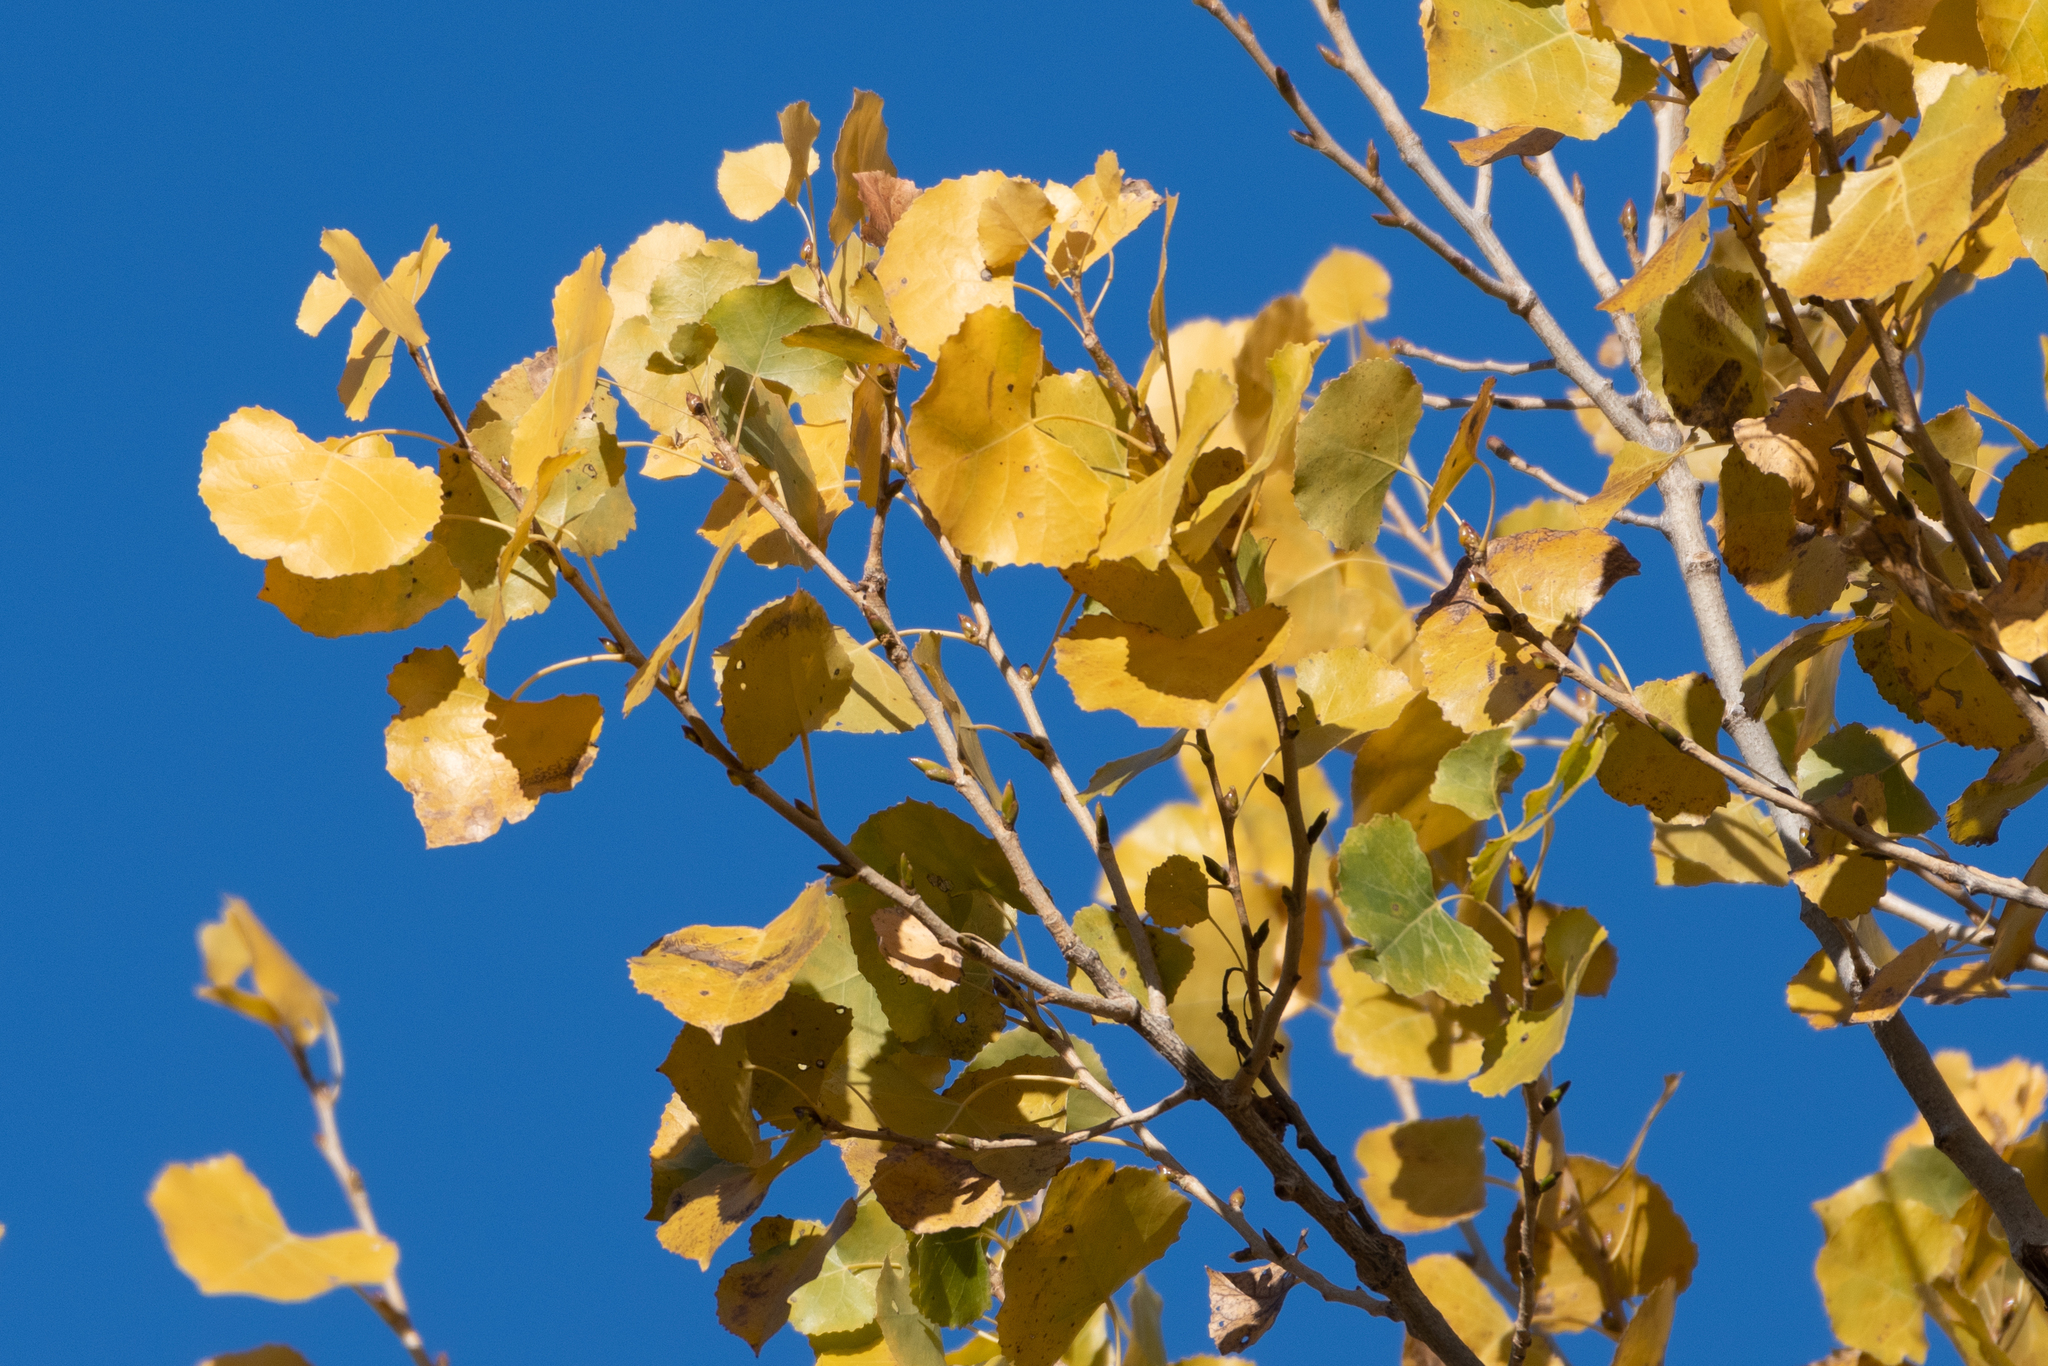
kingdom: Plantae
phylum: Tracheophyta
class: Magnoliopsida
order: Malpighiales
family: Salicaceae
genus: Populus
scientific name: Populus fremontii
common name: Fremont's cottonwood
